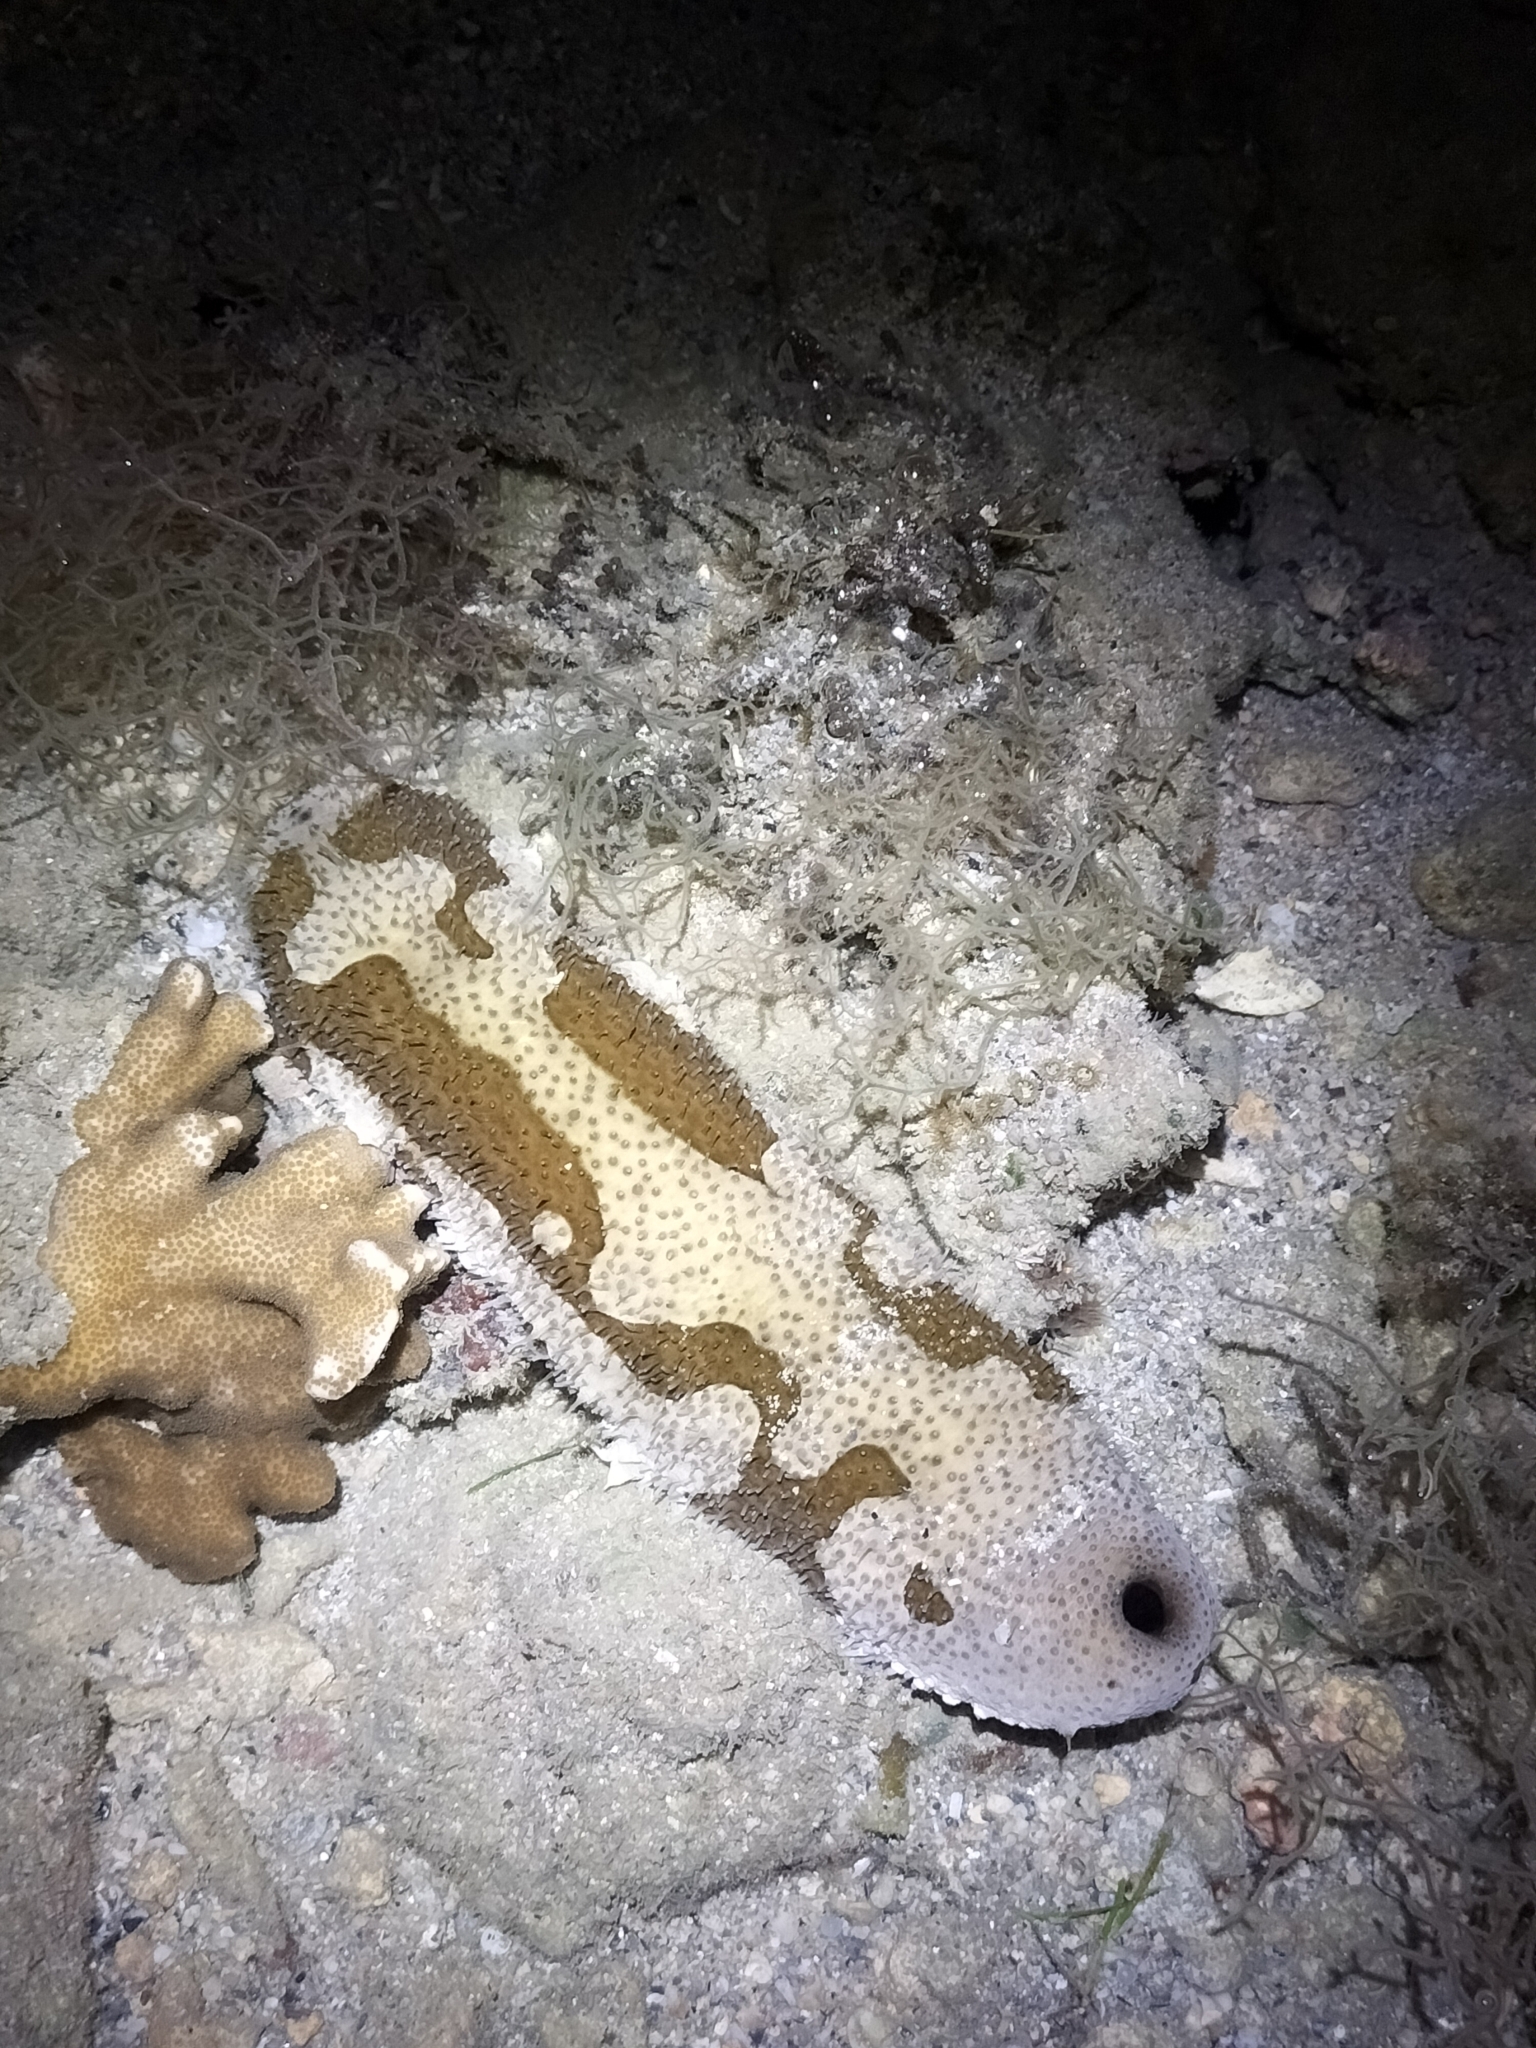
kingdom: Animalia
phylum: Echinodermata
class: Holothuroidea
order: Holothuriida
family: Holothuriidae
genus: Bohadschia
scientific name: Bohadschia marmorata
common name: Brown sandfish
